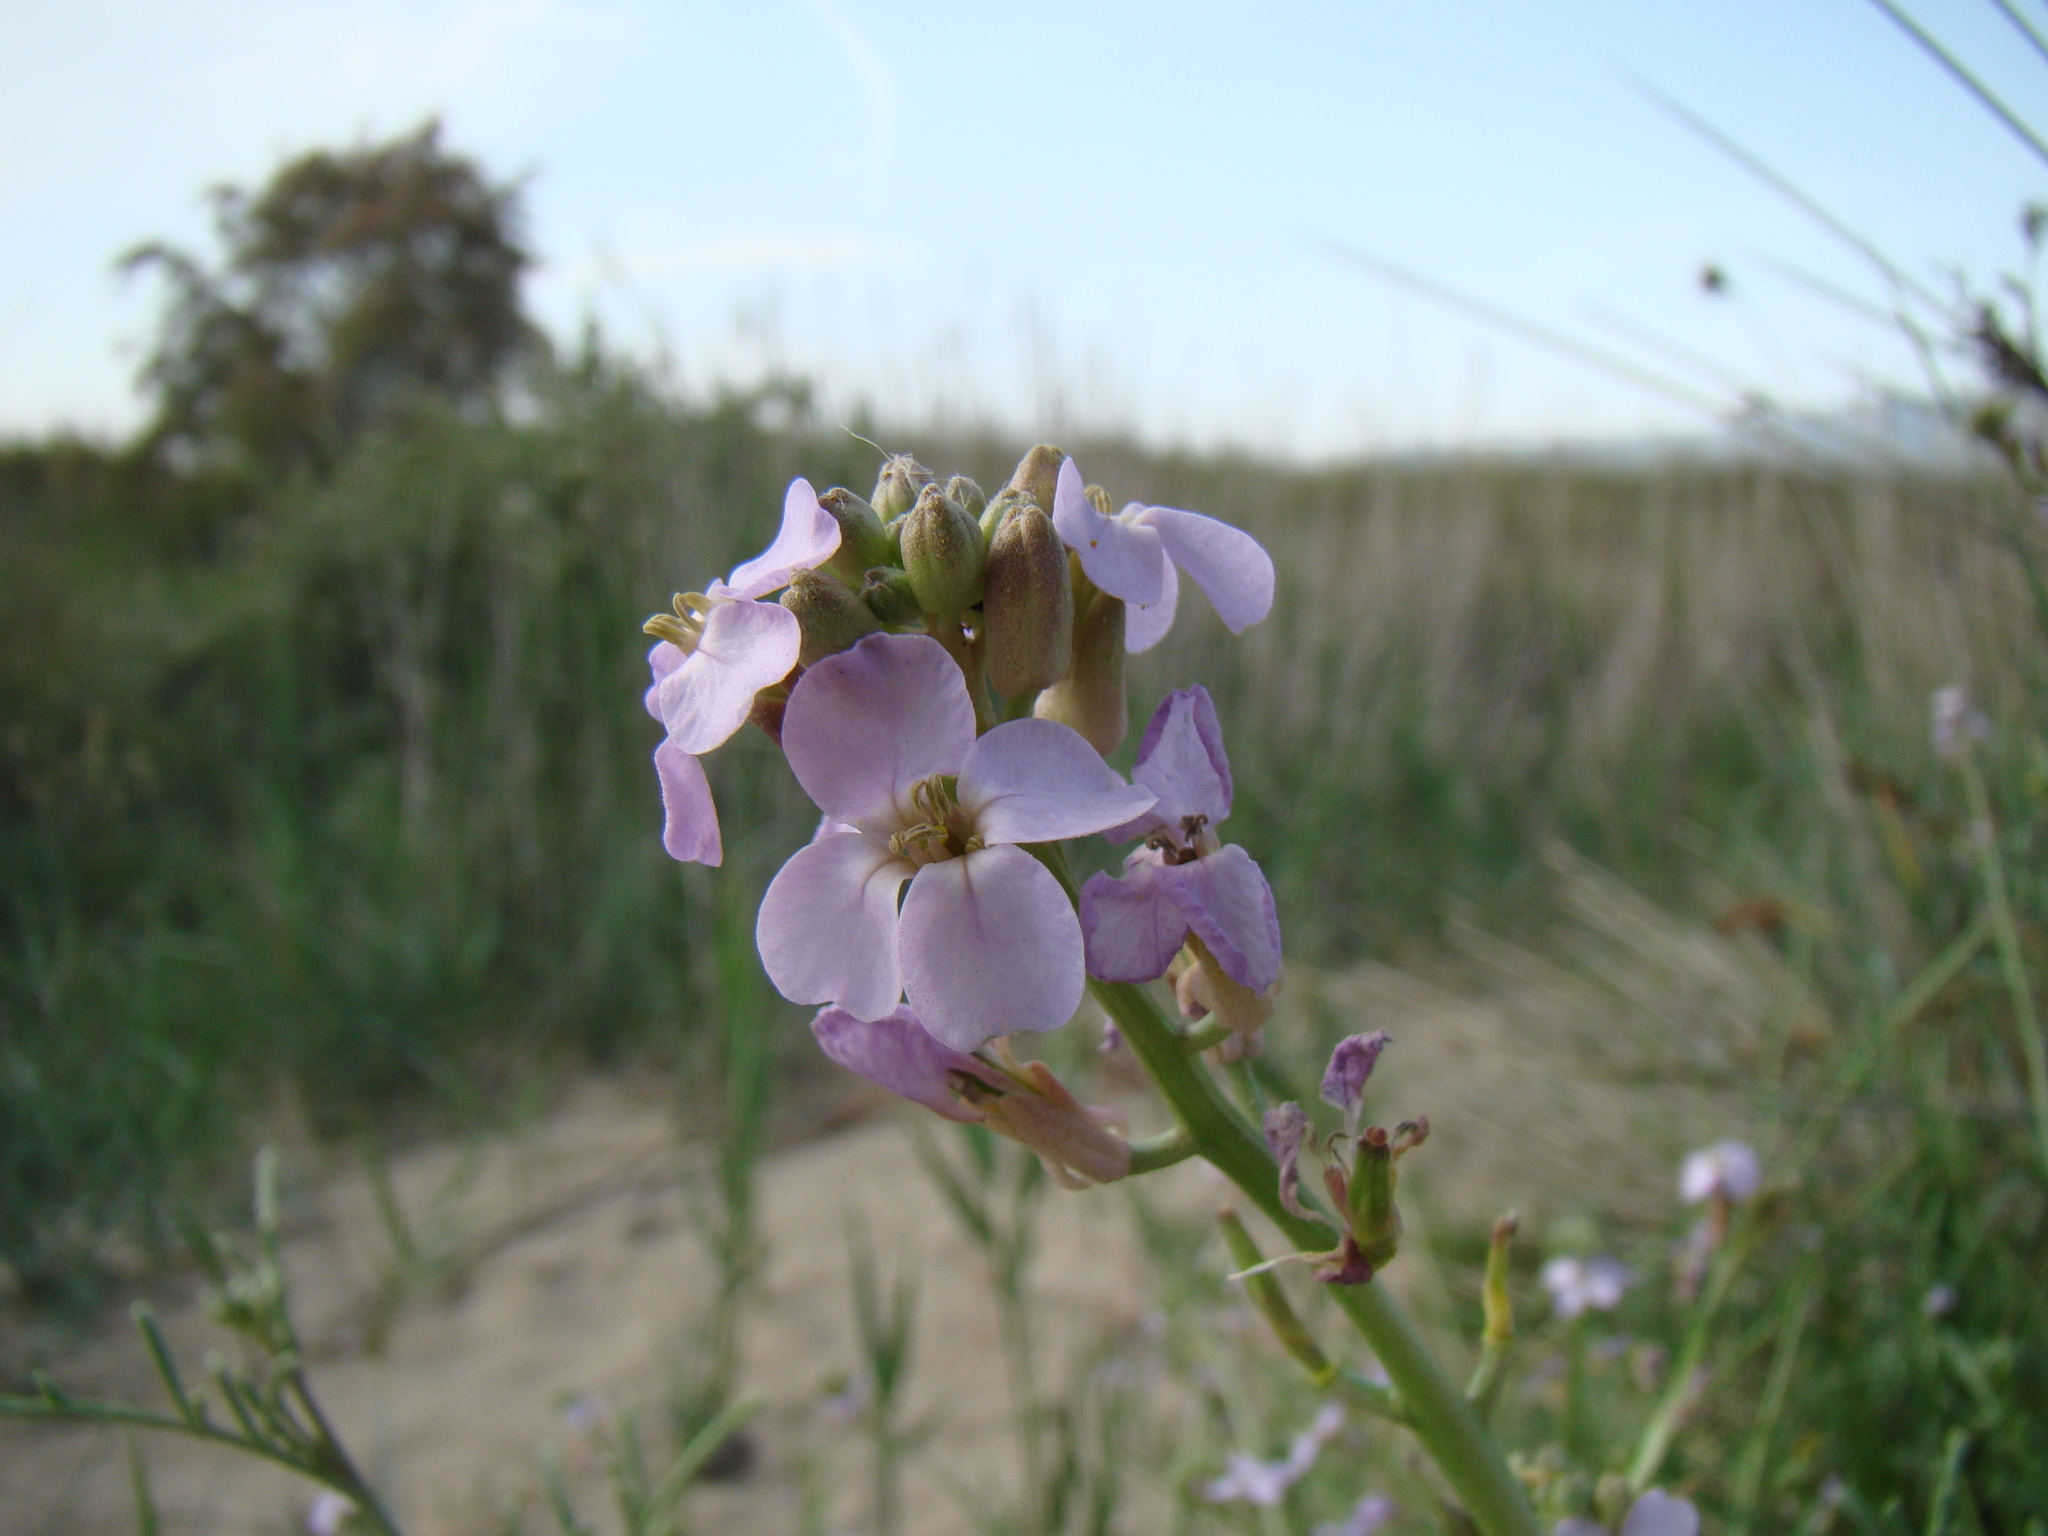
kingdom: Plantae
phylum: Tracheophyta
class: Magnoliopsida
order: Brassicales
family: Brassicaceae
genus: Cakile
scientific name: Cakile maritima
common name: Sea rocket
